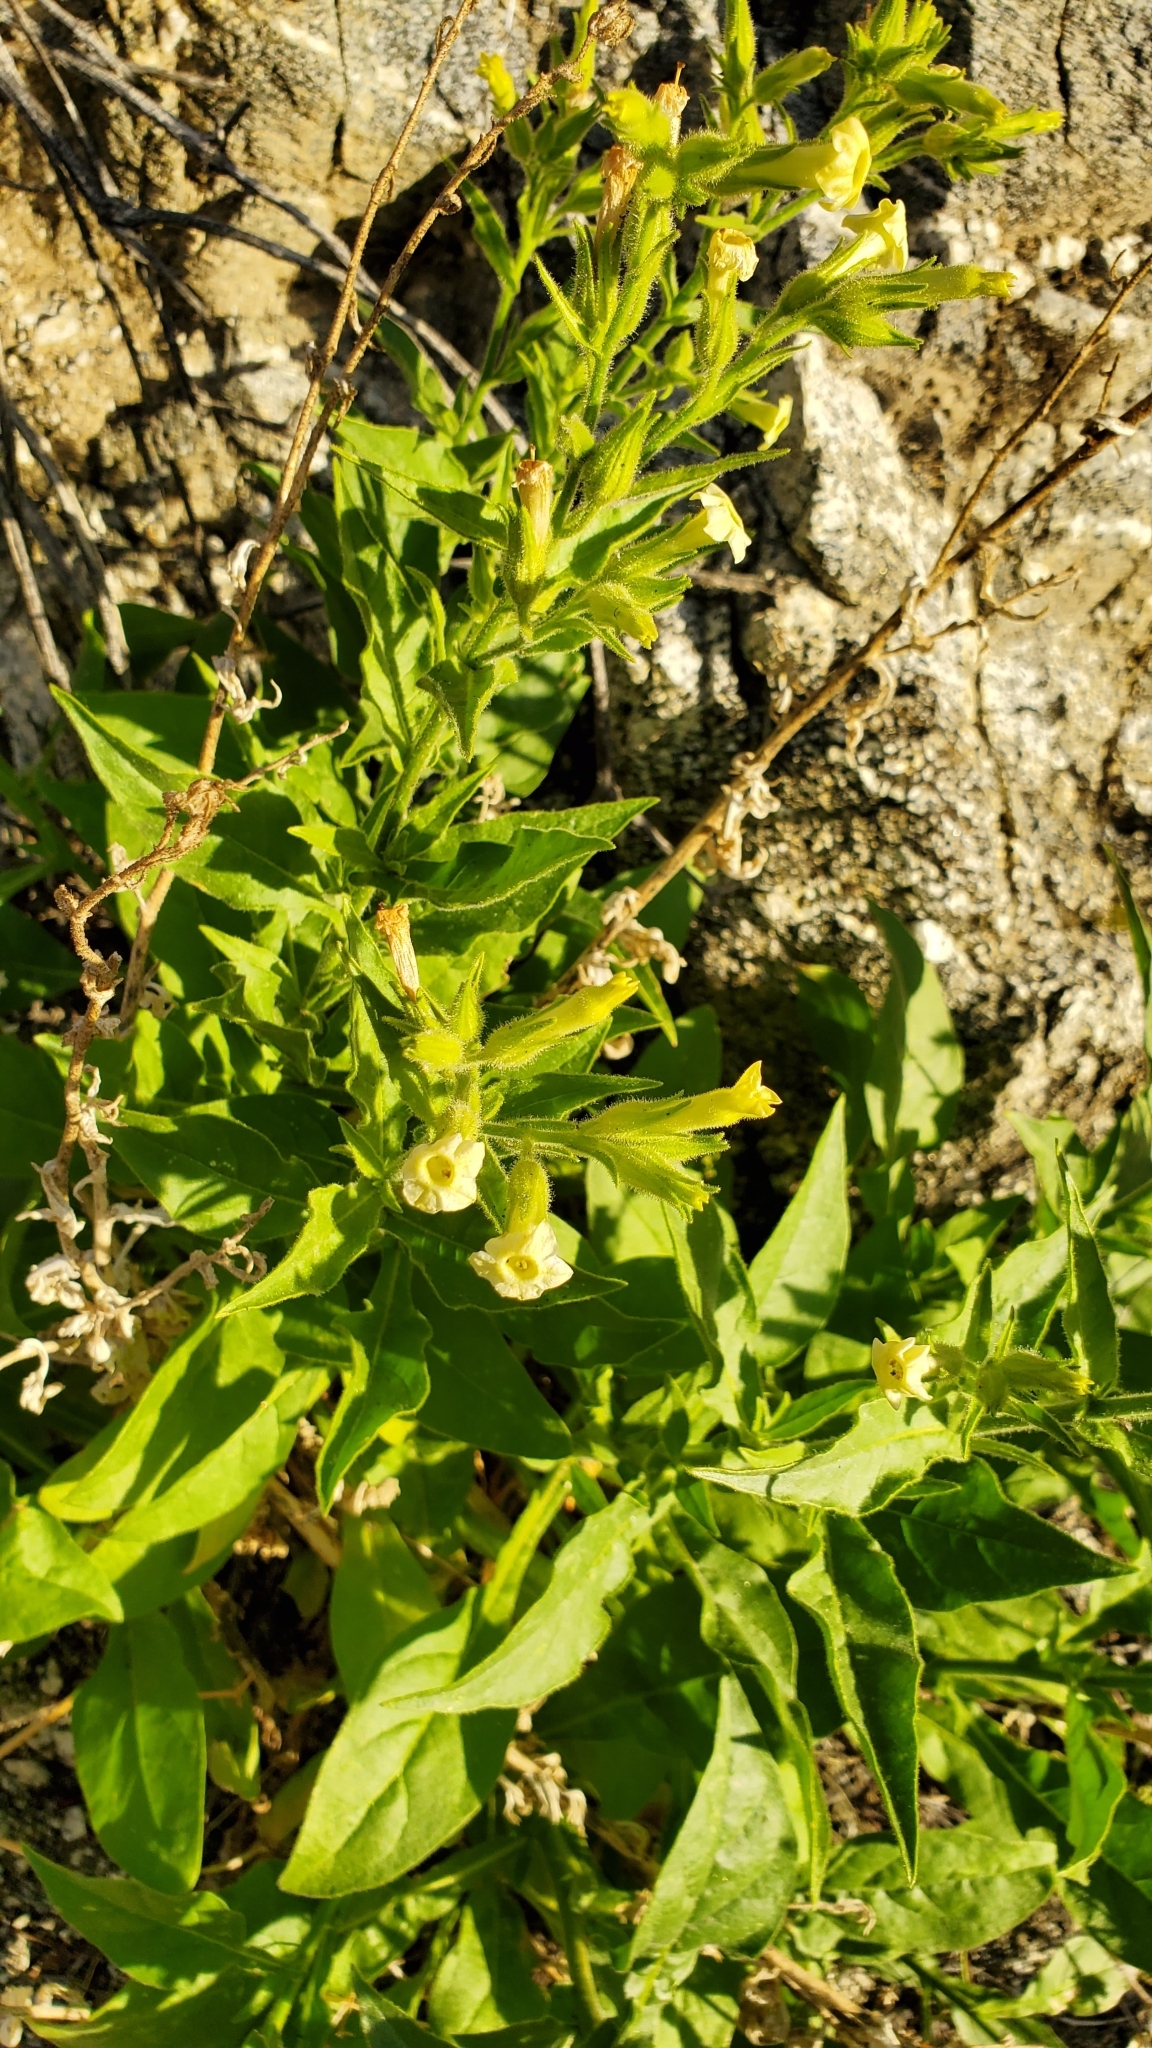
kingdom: Plantae
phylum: Tracheophyta
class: Magnoliopsida
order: Solanales
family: Solanaceae
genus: Nicotiana
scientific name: Nicotiana obtusifolia
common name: Desert tobacco
